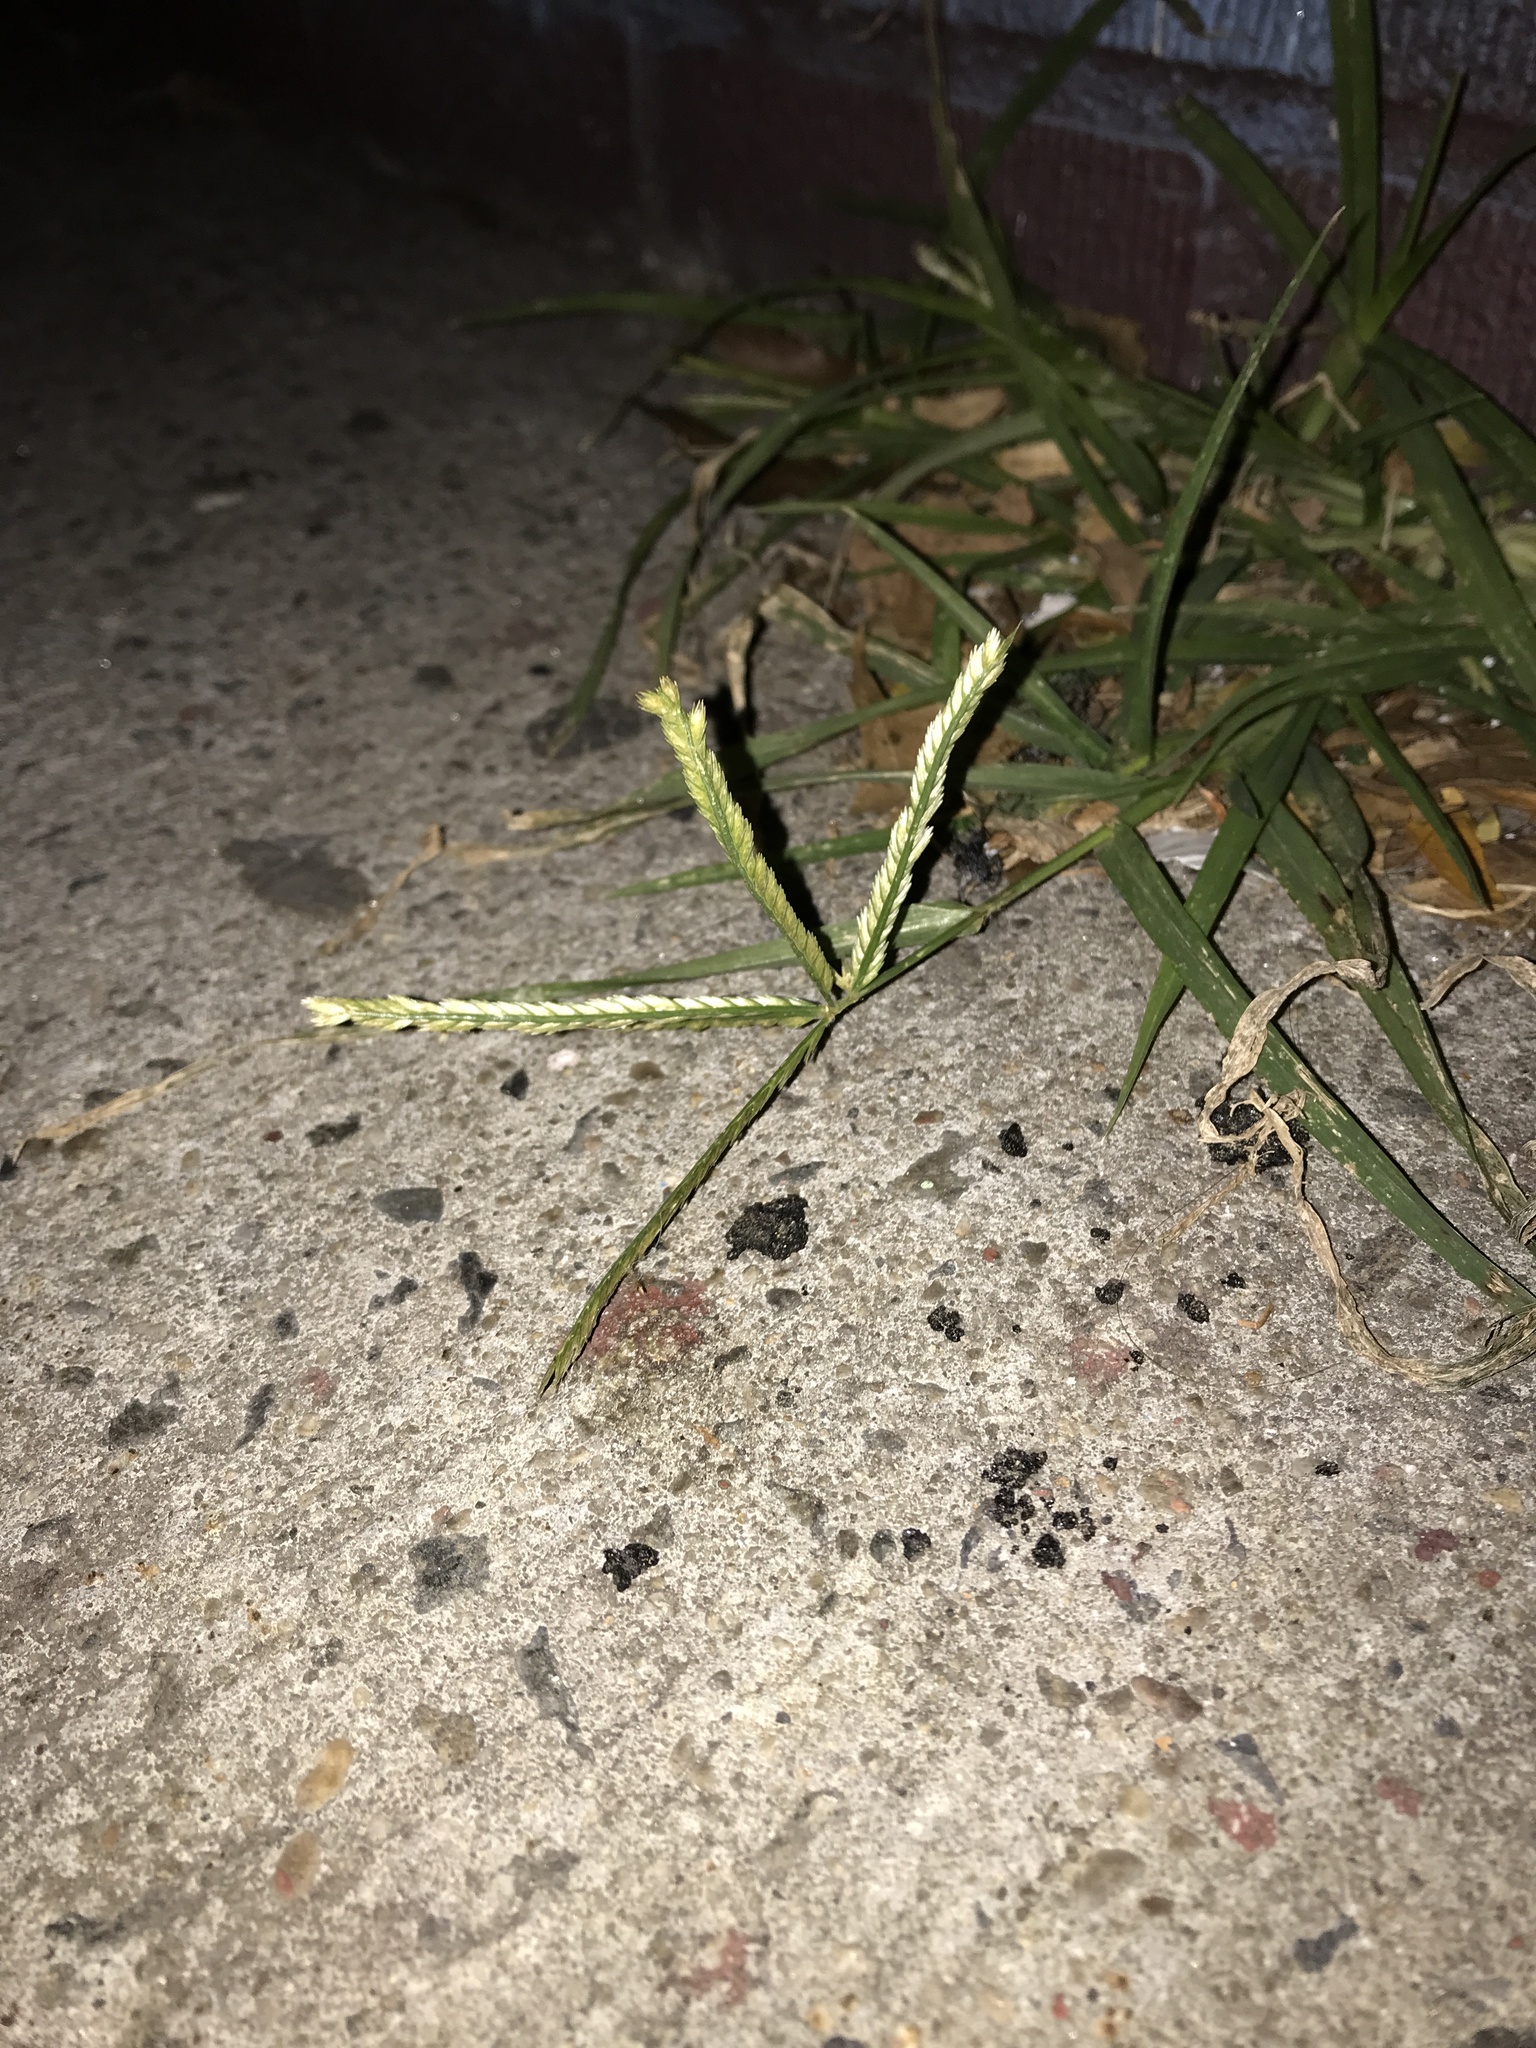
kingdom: Plantae
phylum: Tracheophyta
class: Liliopsida
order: Poales
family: Poaceae
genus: Eleusine
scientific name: Eleusine indica
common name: Yard-grass
